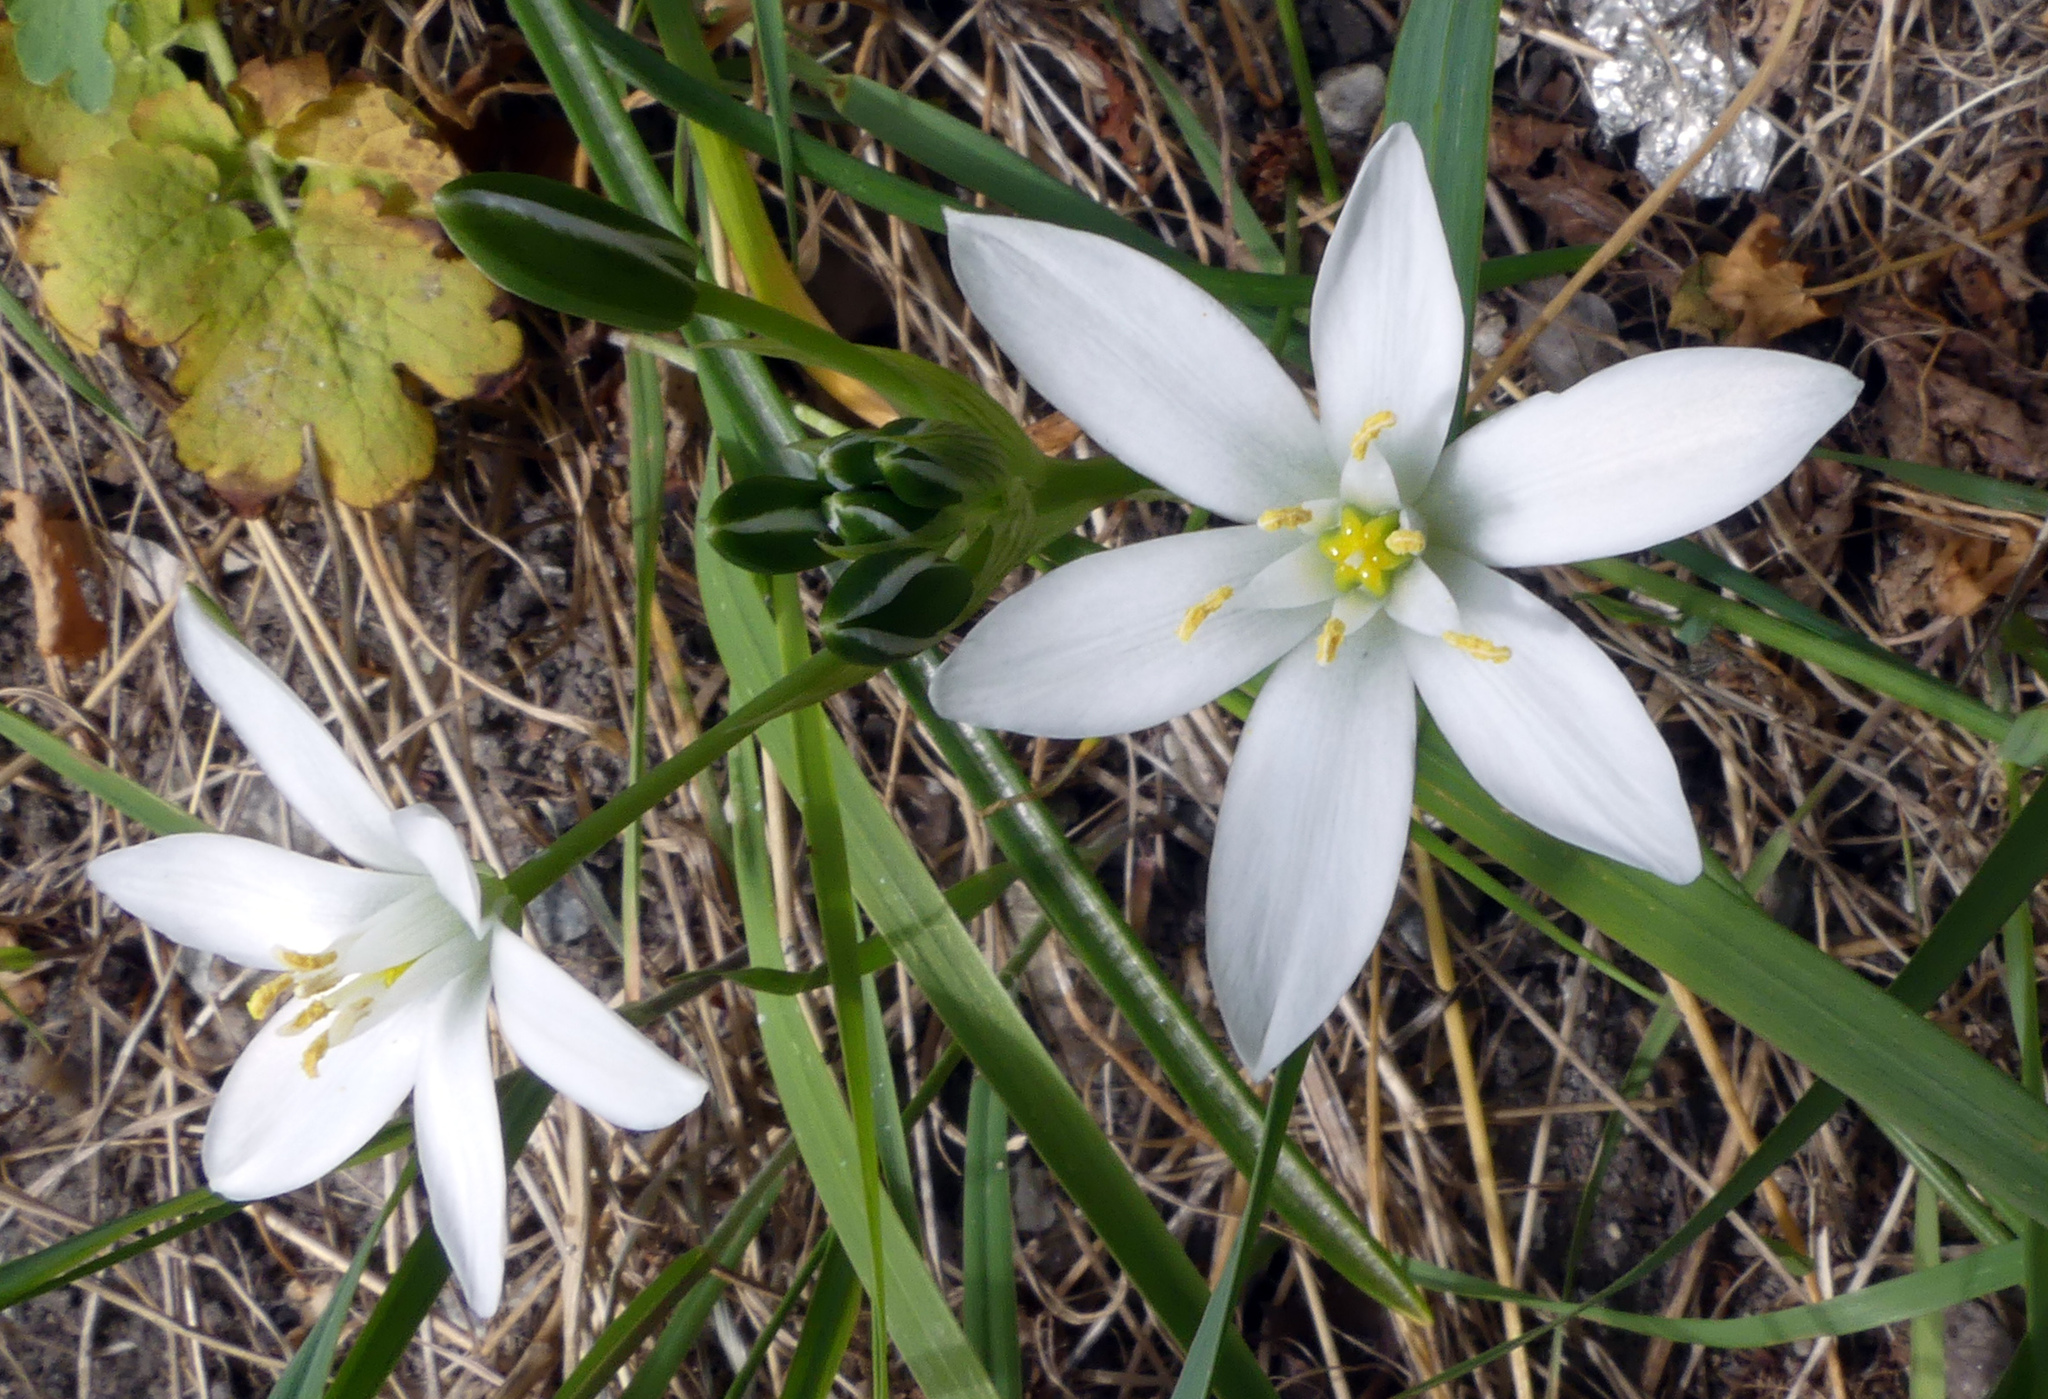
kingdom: Plantae
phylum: Tracheophyta
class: Liliopsida
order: Asparagales
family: Asparagaceae
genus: Ornithogalum
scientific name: Ornithogalum umbellatum
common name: Garden star-of-bethlehem
